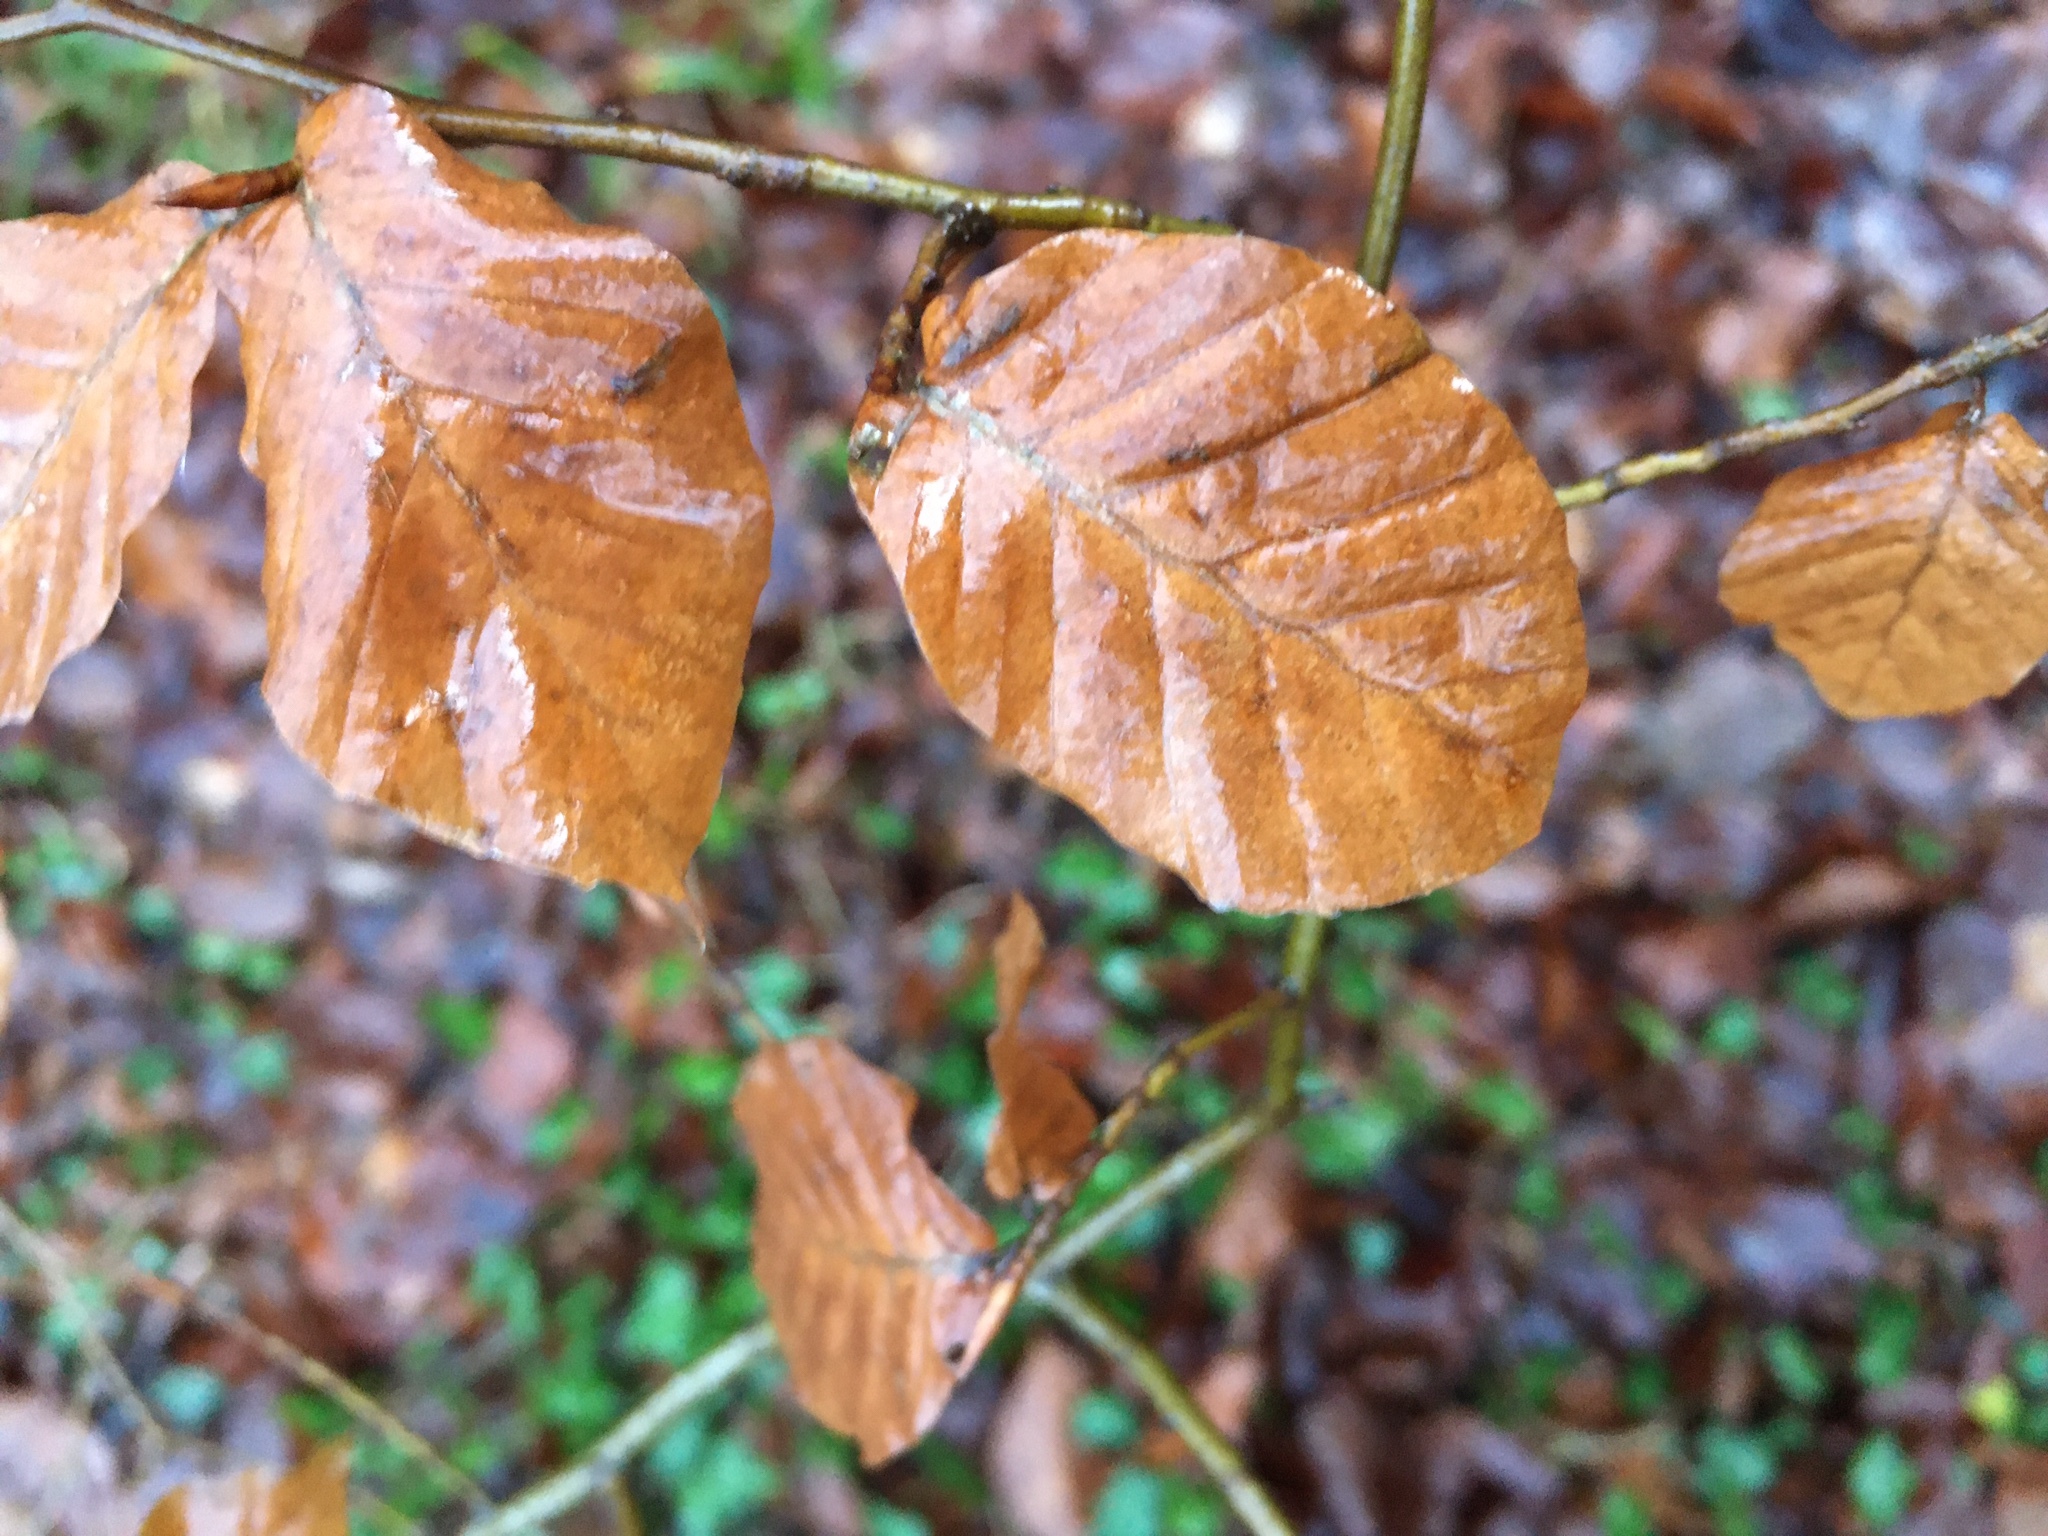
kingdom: Plantae
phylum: Tracheophyta
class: Magnoliopsida
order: Fagales
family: Fagaceae
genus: Fagus
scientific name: Fagus sylvatica
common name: Beech
